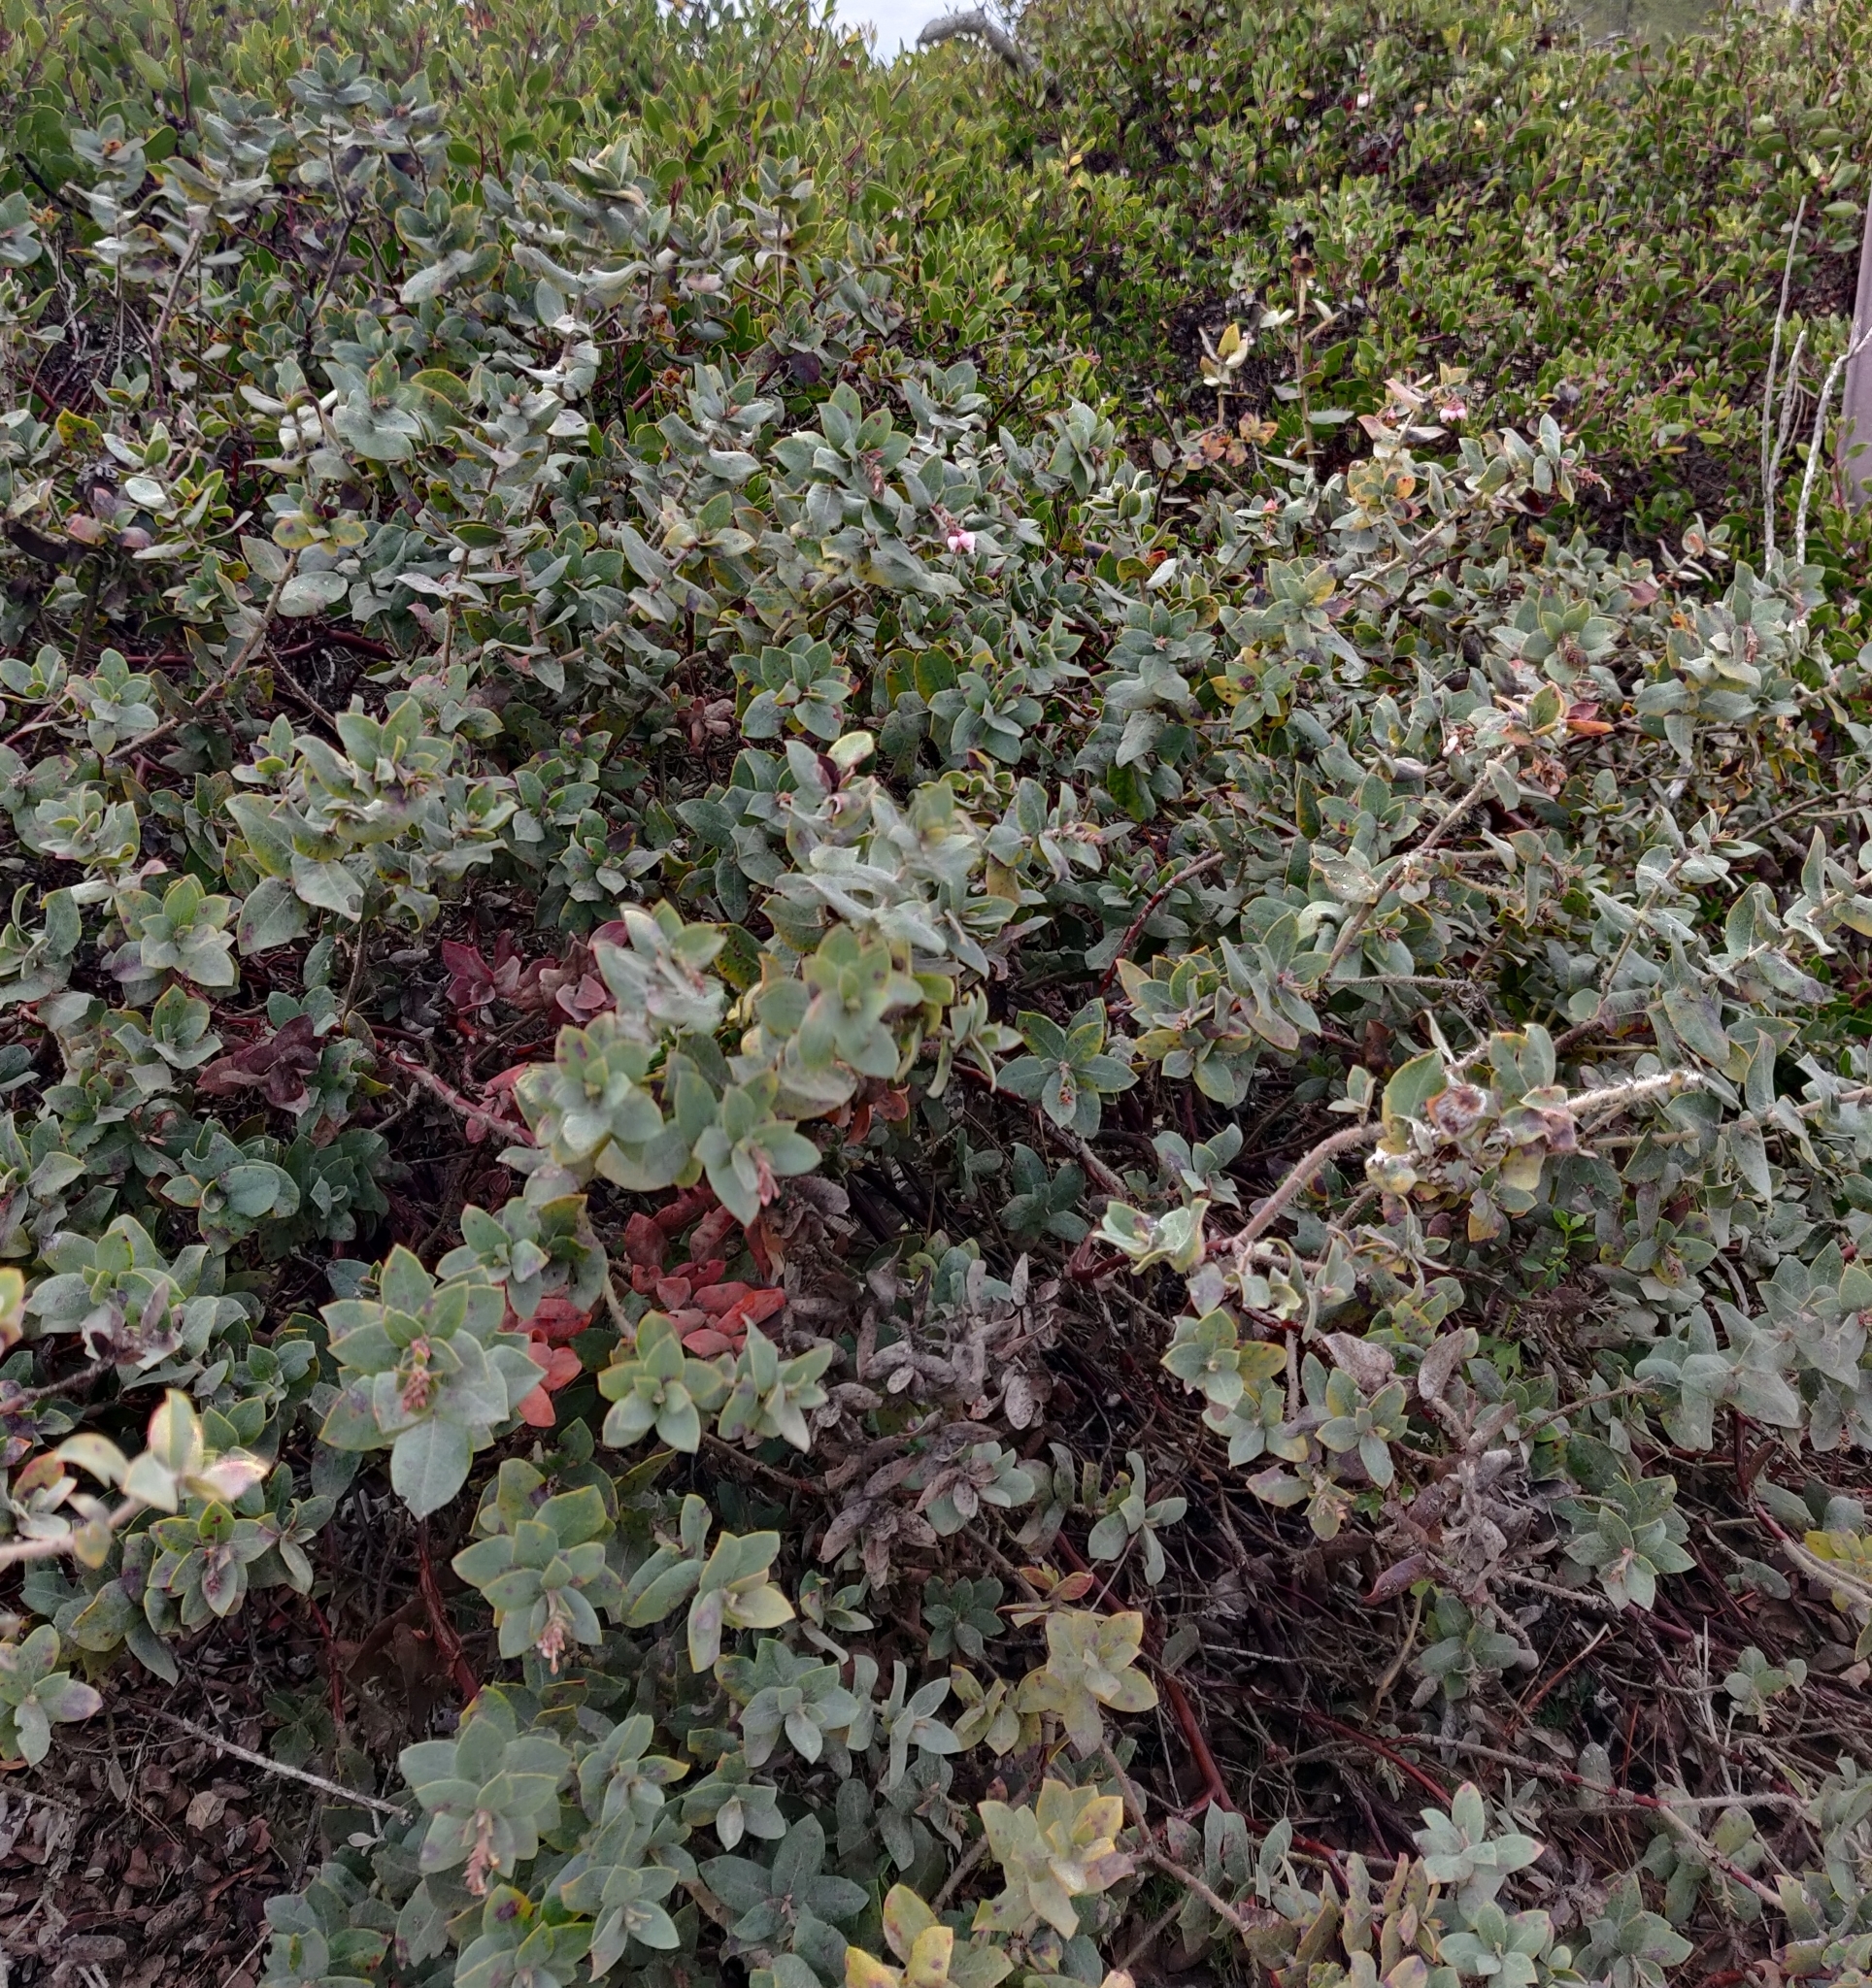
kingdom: Plantae
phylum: Tracheophyta
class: Magnoliopsida
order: Ericales
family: Ericaceae
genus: Arctostaphylos
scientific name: Arctostaphylos pajaroensis
